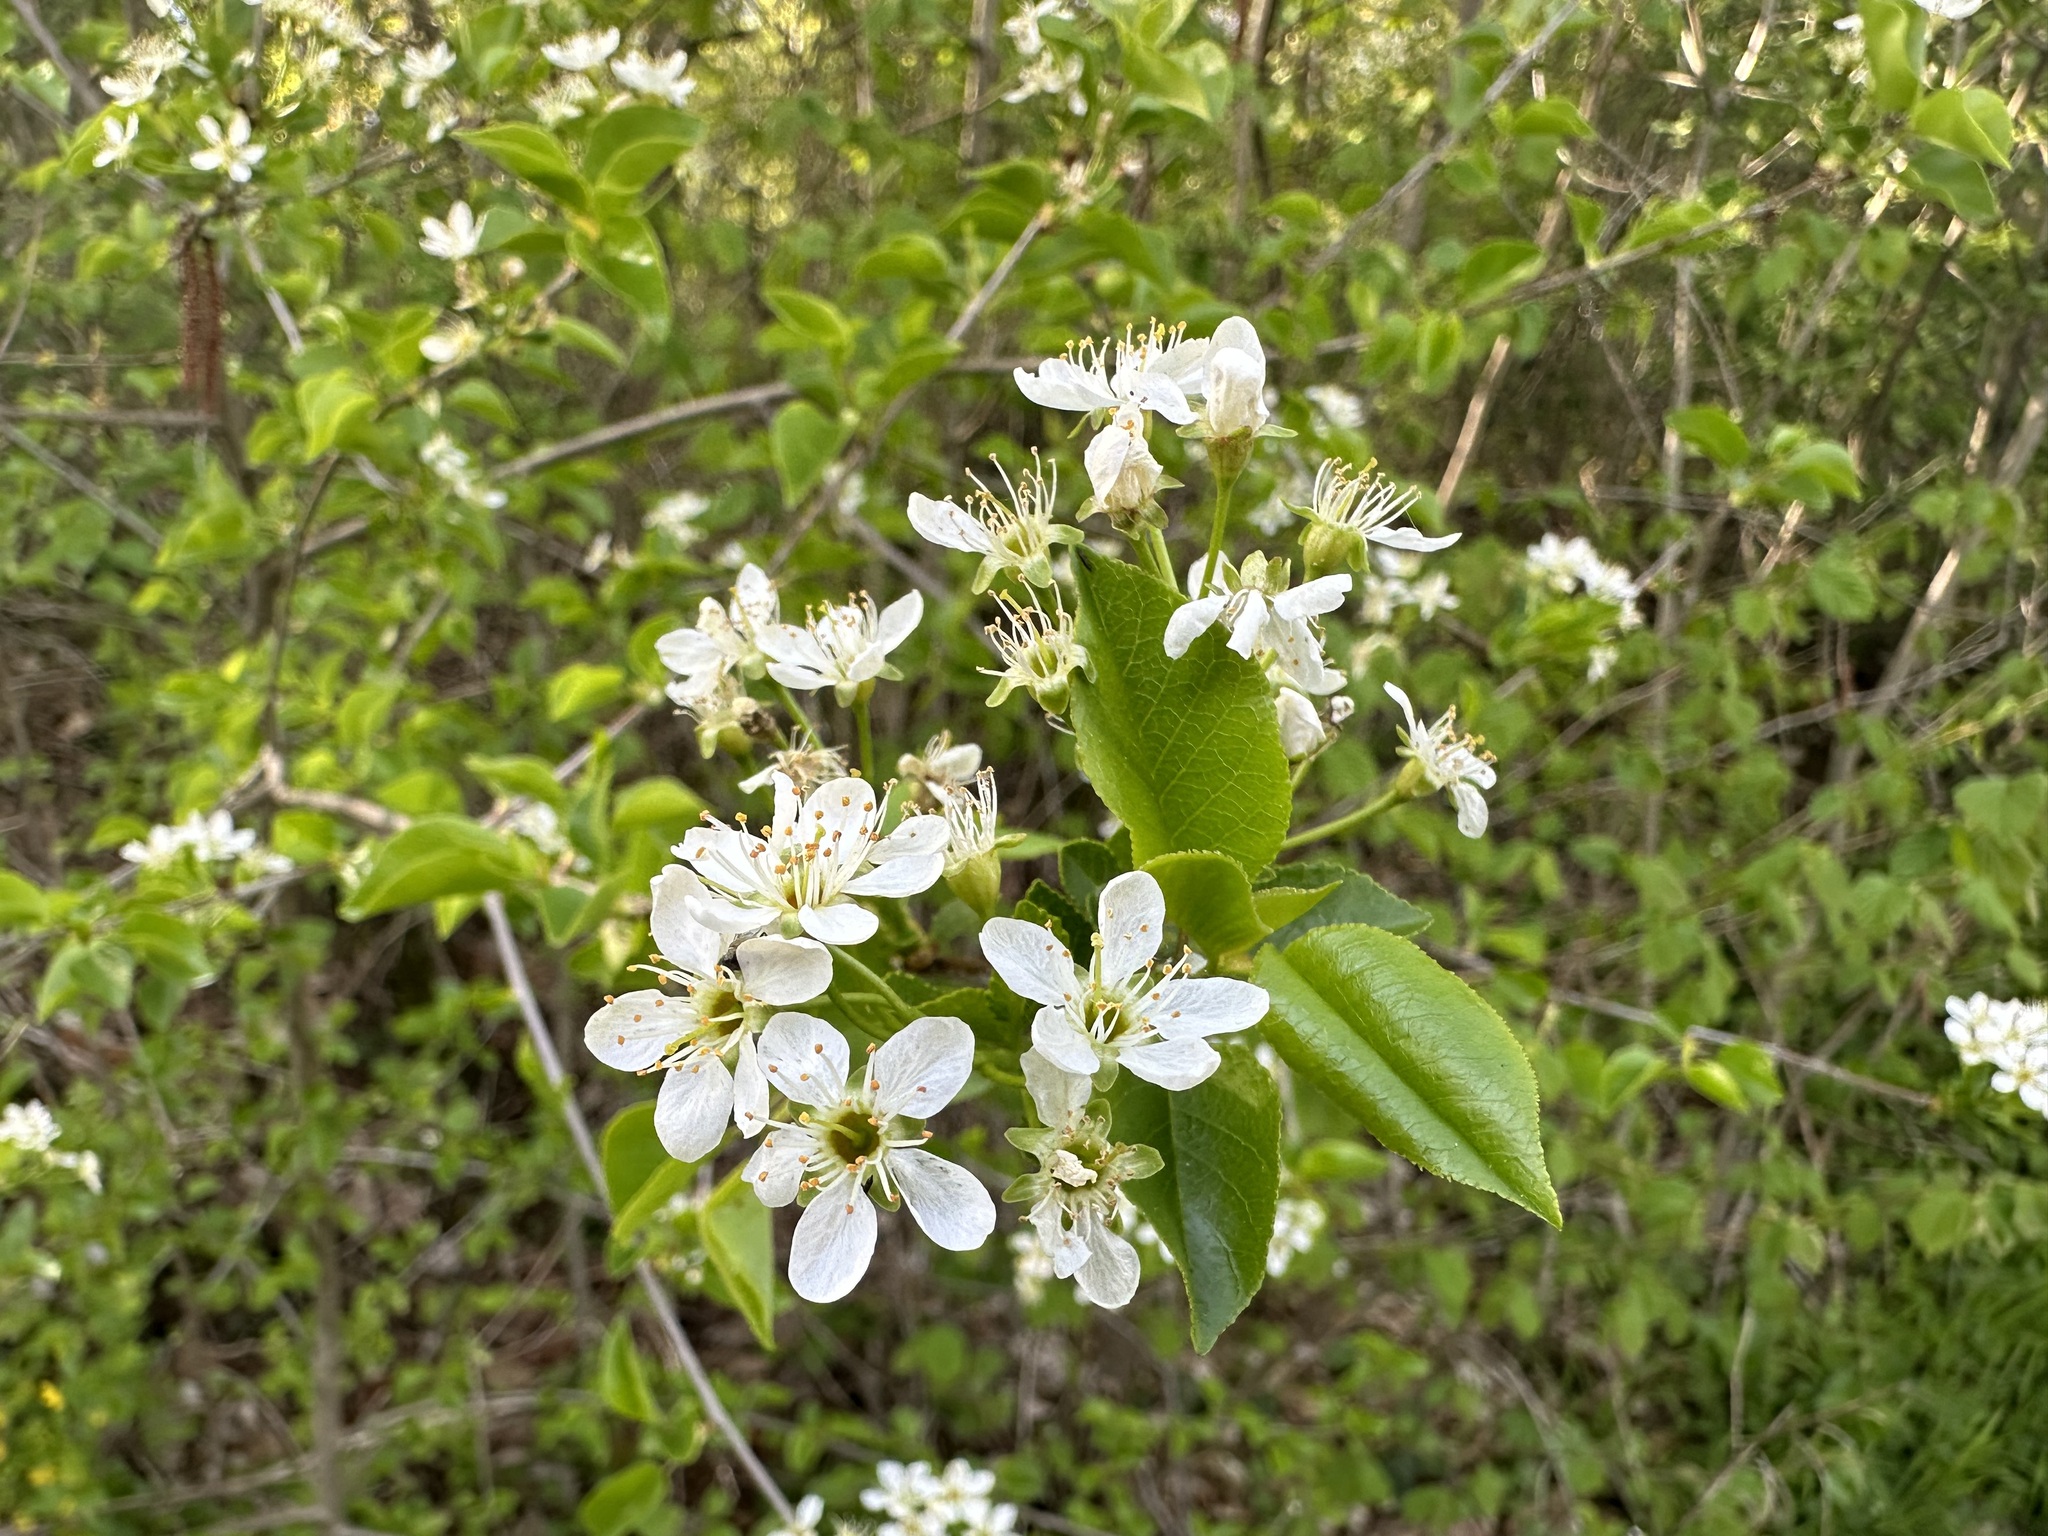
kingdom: Plantae
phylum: Tracheophyta
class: Magnoliopsida
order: Rosales
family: Rosaceae
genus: Prunus
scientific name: Prunus mahaleb
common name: Mahaleb cherry
